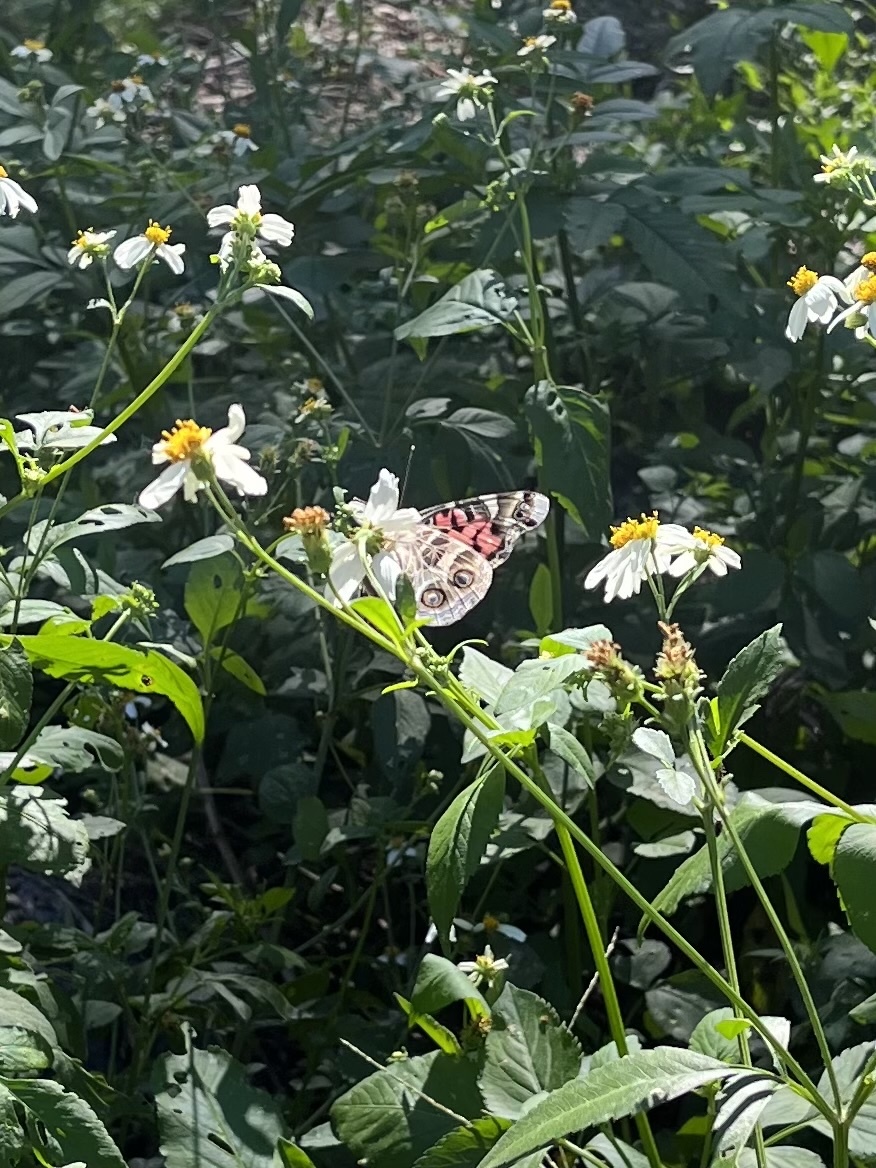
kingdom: Animalia
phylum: Arthropoda
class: Insecta
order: Lepidoptera
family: Nymphalidae
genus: Vanessa
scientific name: Vanessa virginiensis
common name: American lady
